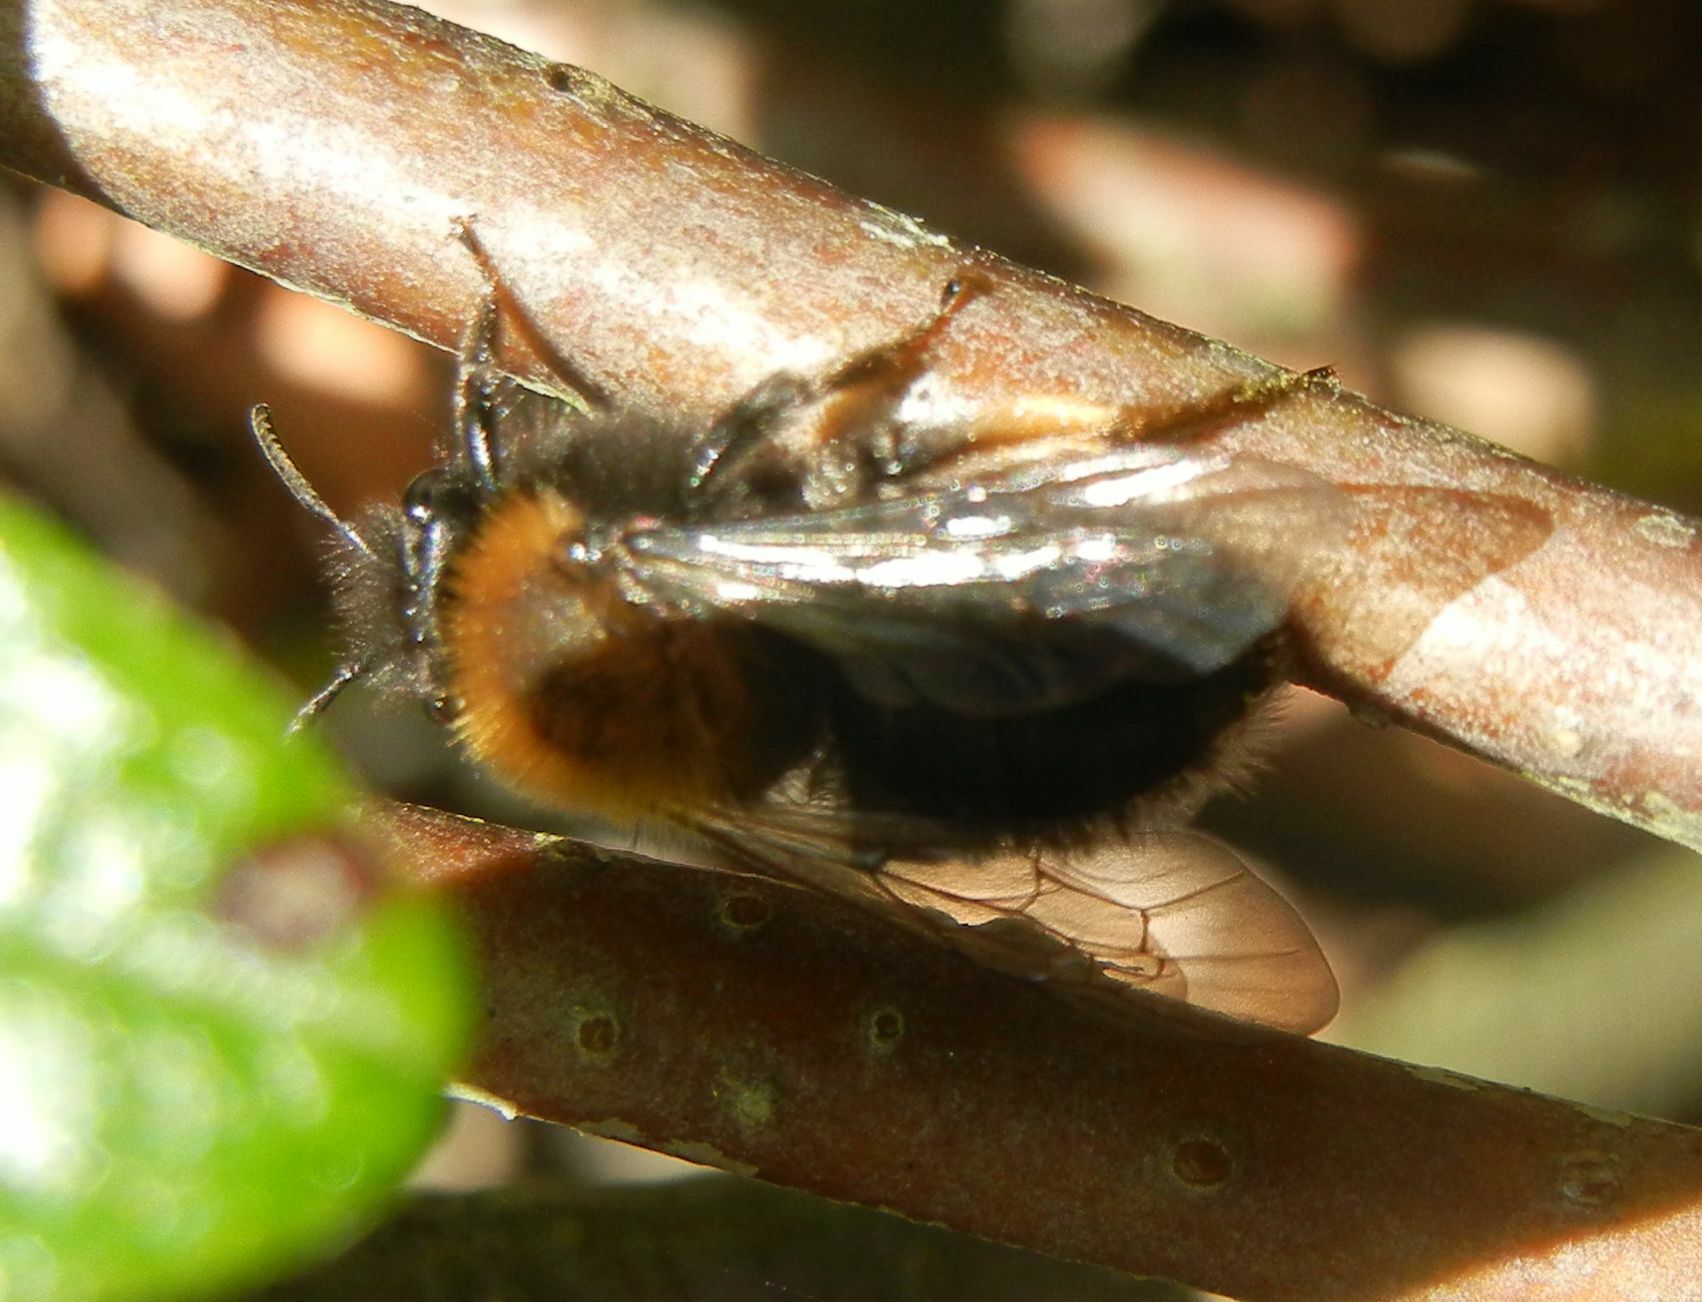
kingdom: Animalia
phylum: Arthropoda
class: Insecta
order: Hymenoptera
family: Andrenidae
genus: Andrena
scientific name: Andrena clarkella
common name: Clarke's mining bee
